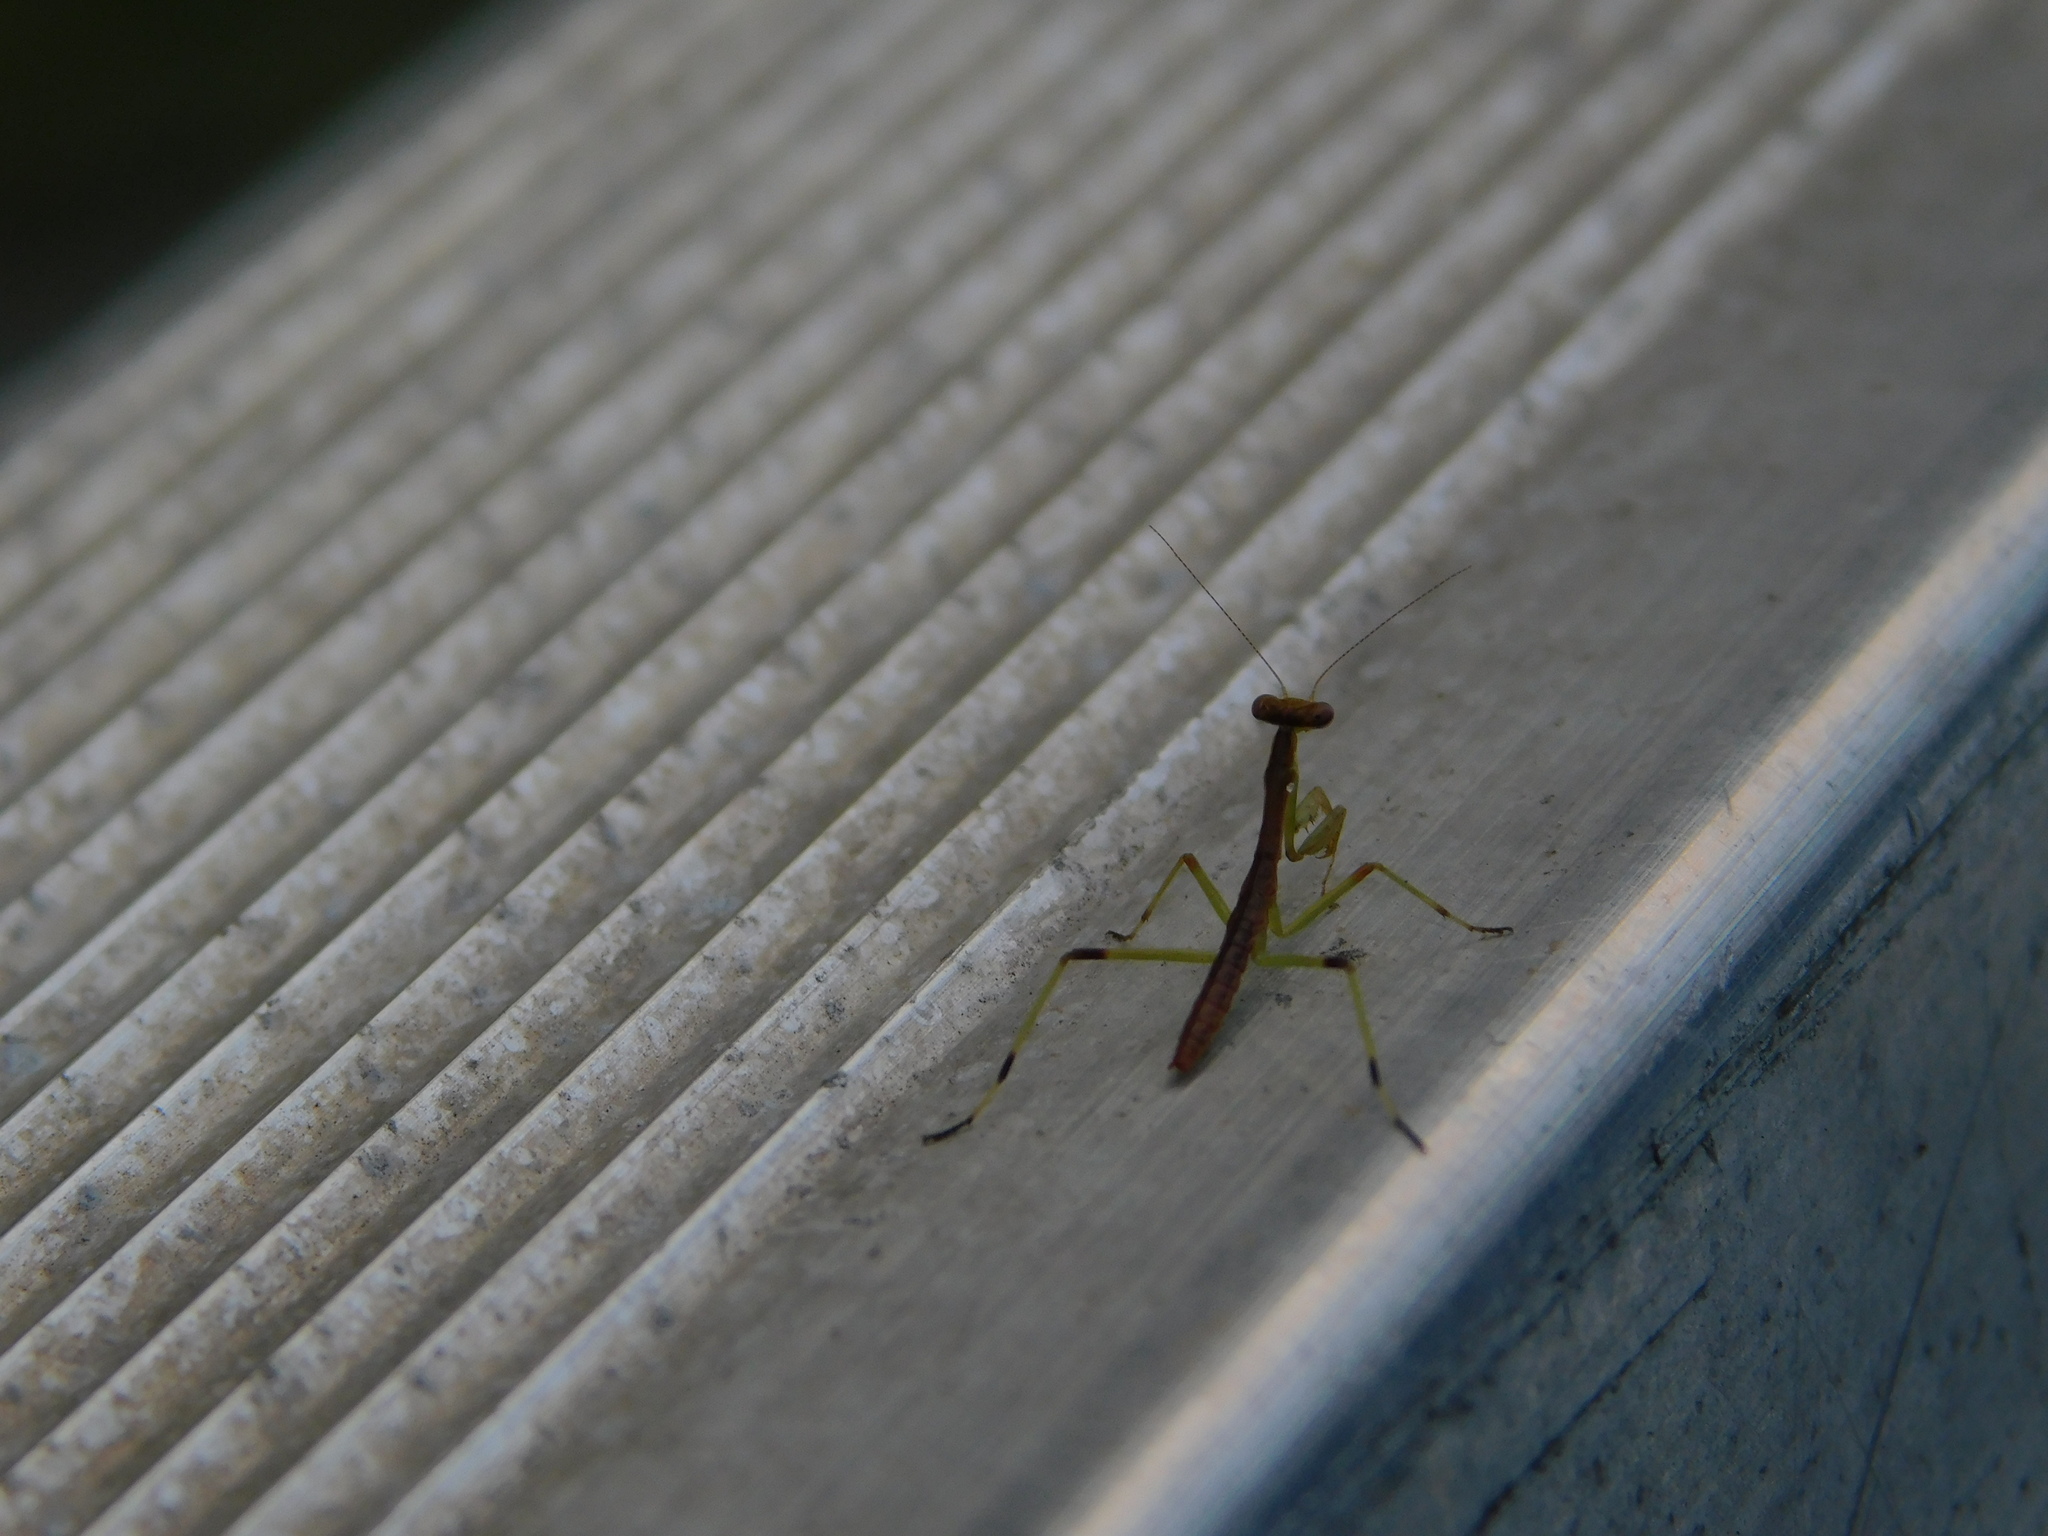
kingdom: Animalia
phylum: Arthropoda
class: Insecta
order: Mantodea
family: Mantidae
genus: Stagmomantis
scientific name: Stagmomantis carolina
